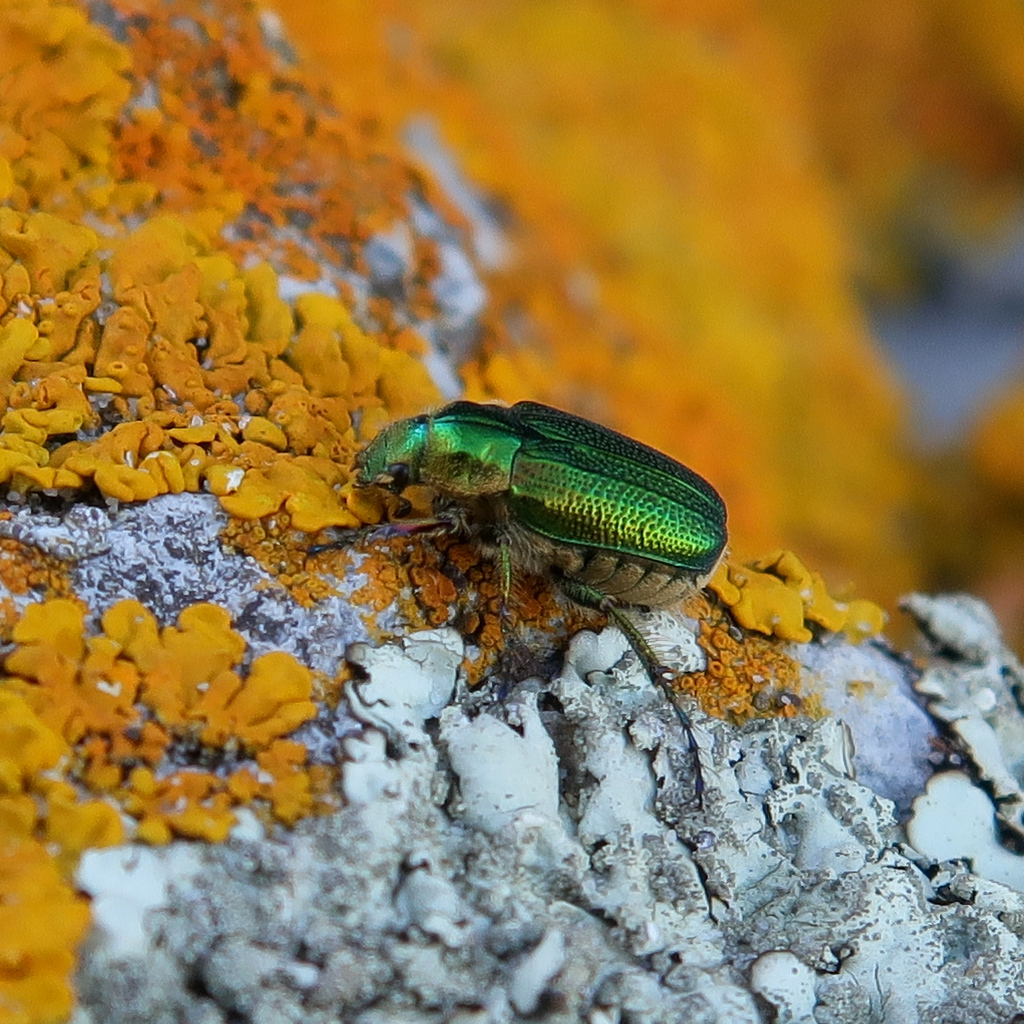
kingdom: Animalia
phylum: Arthropoda
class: Insecta
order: Coleoptera
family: Scarabaeidae
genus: Diphucephala
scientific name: Diphucephala colaspidoides
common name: Green scarab beetle
